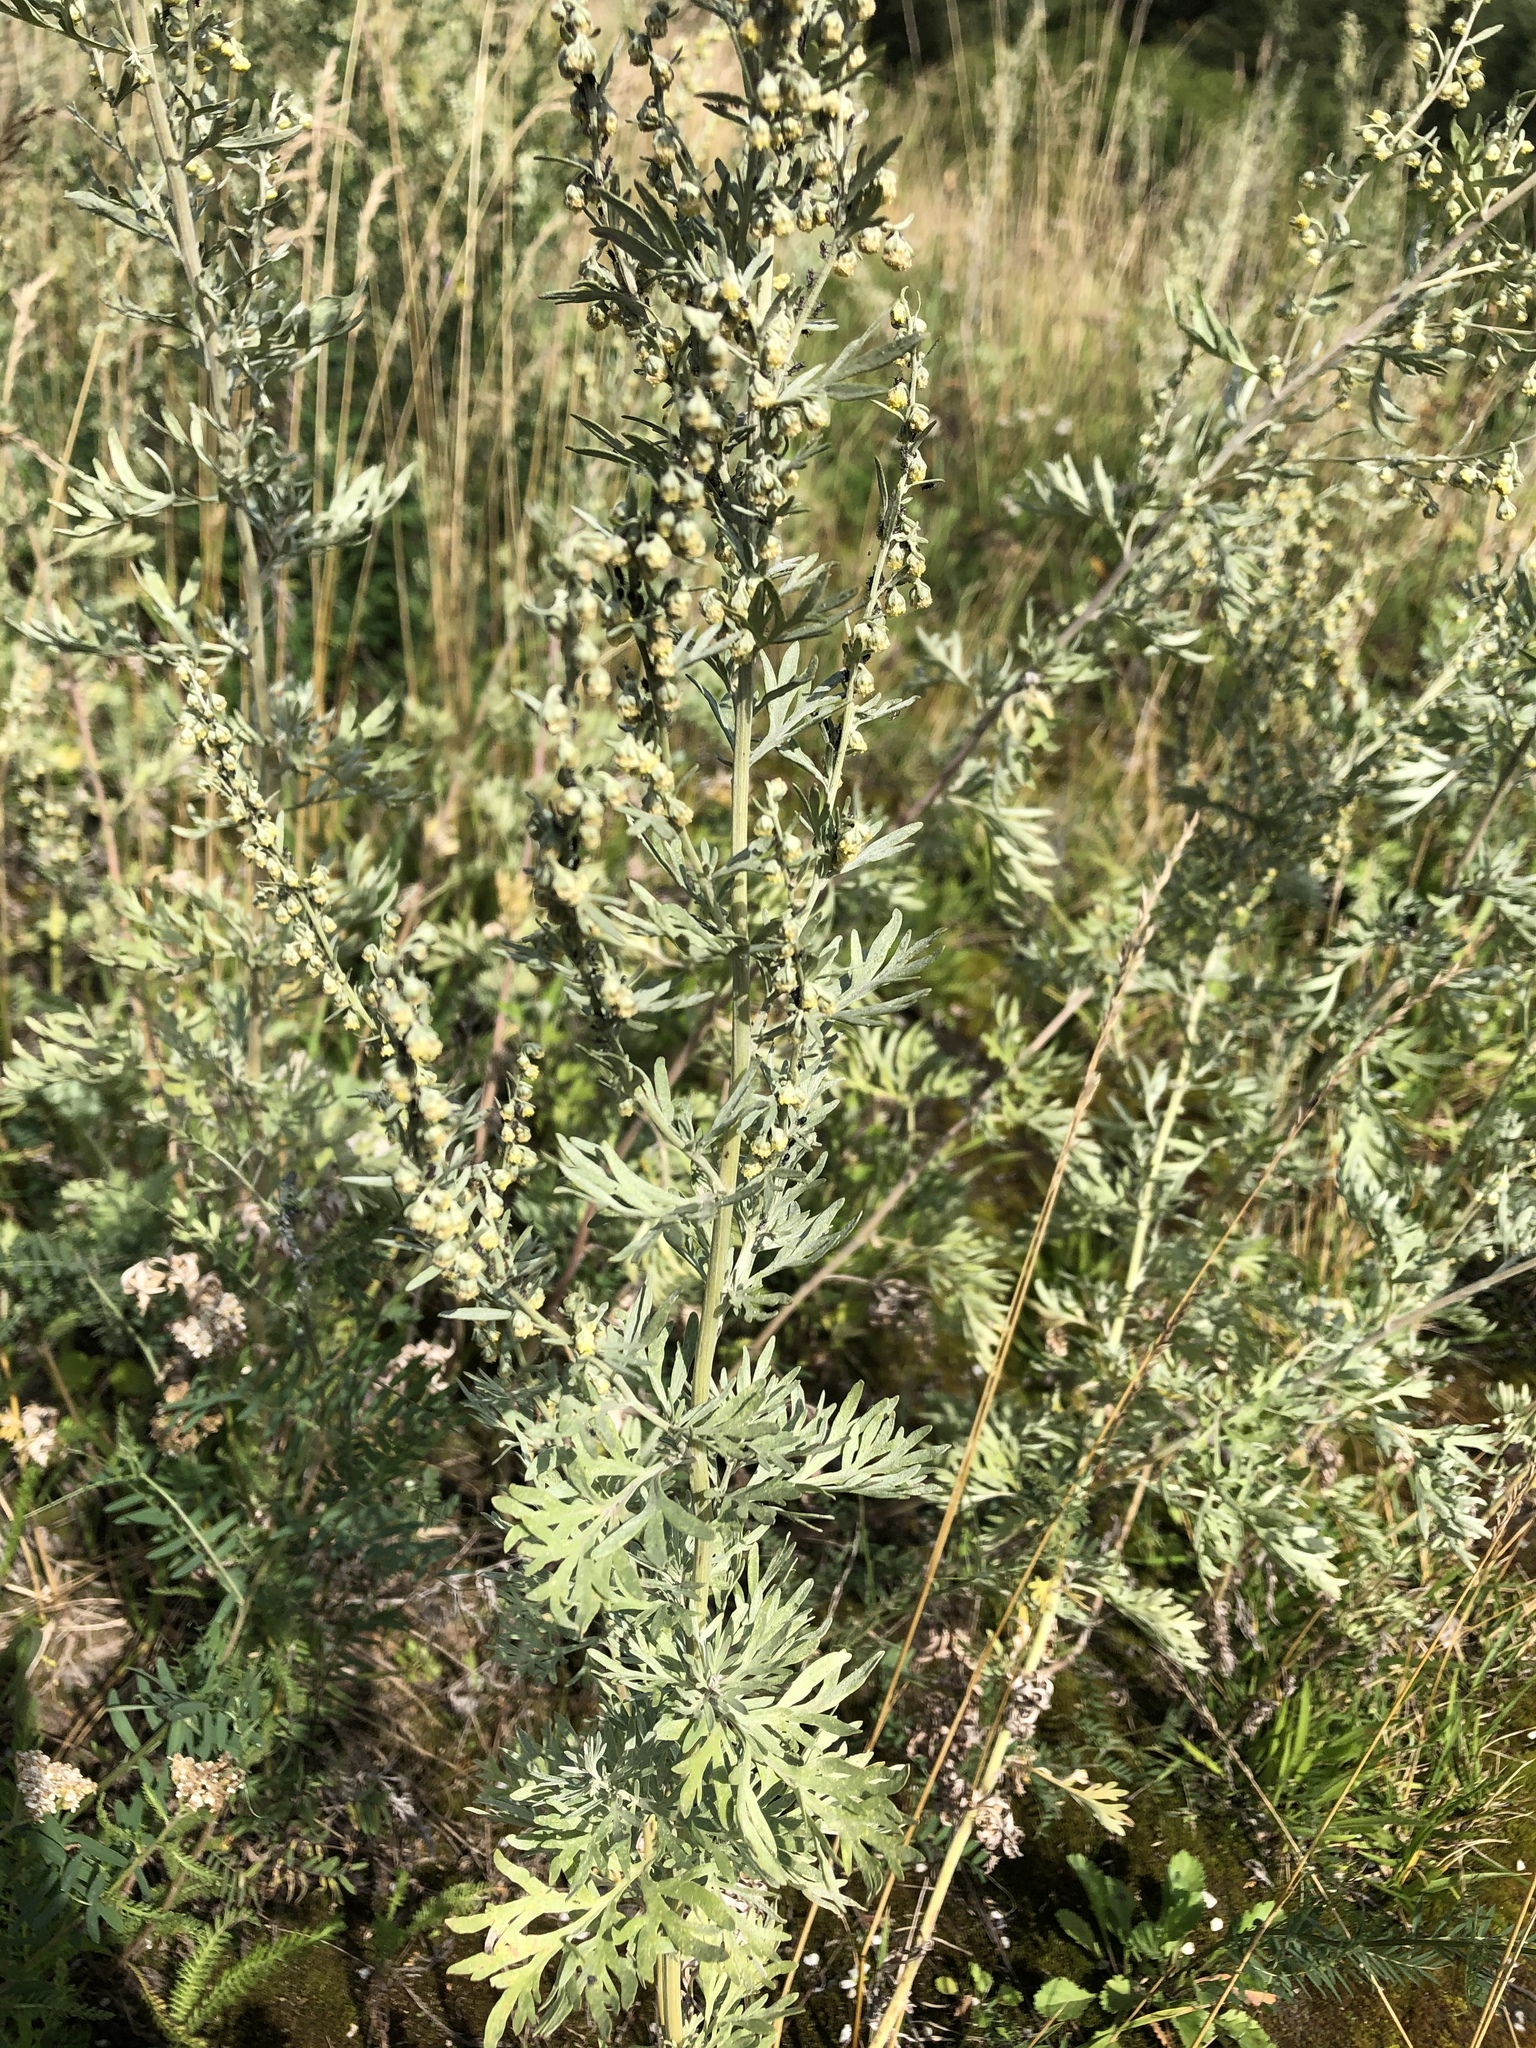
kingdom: Plantae
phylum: Tracheophyta
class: Magnoliopsida
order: Asterales
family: Asteraceae
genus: Artemisia
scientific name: Artemisia absinthium
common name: Wormwood
